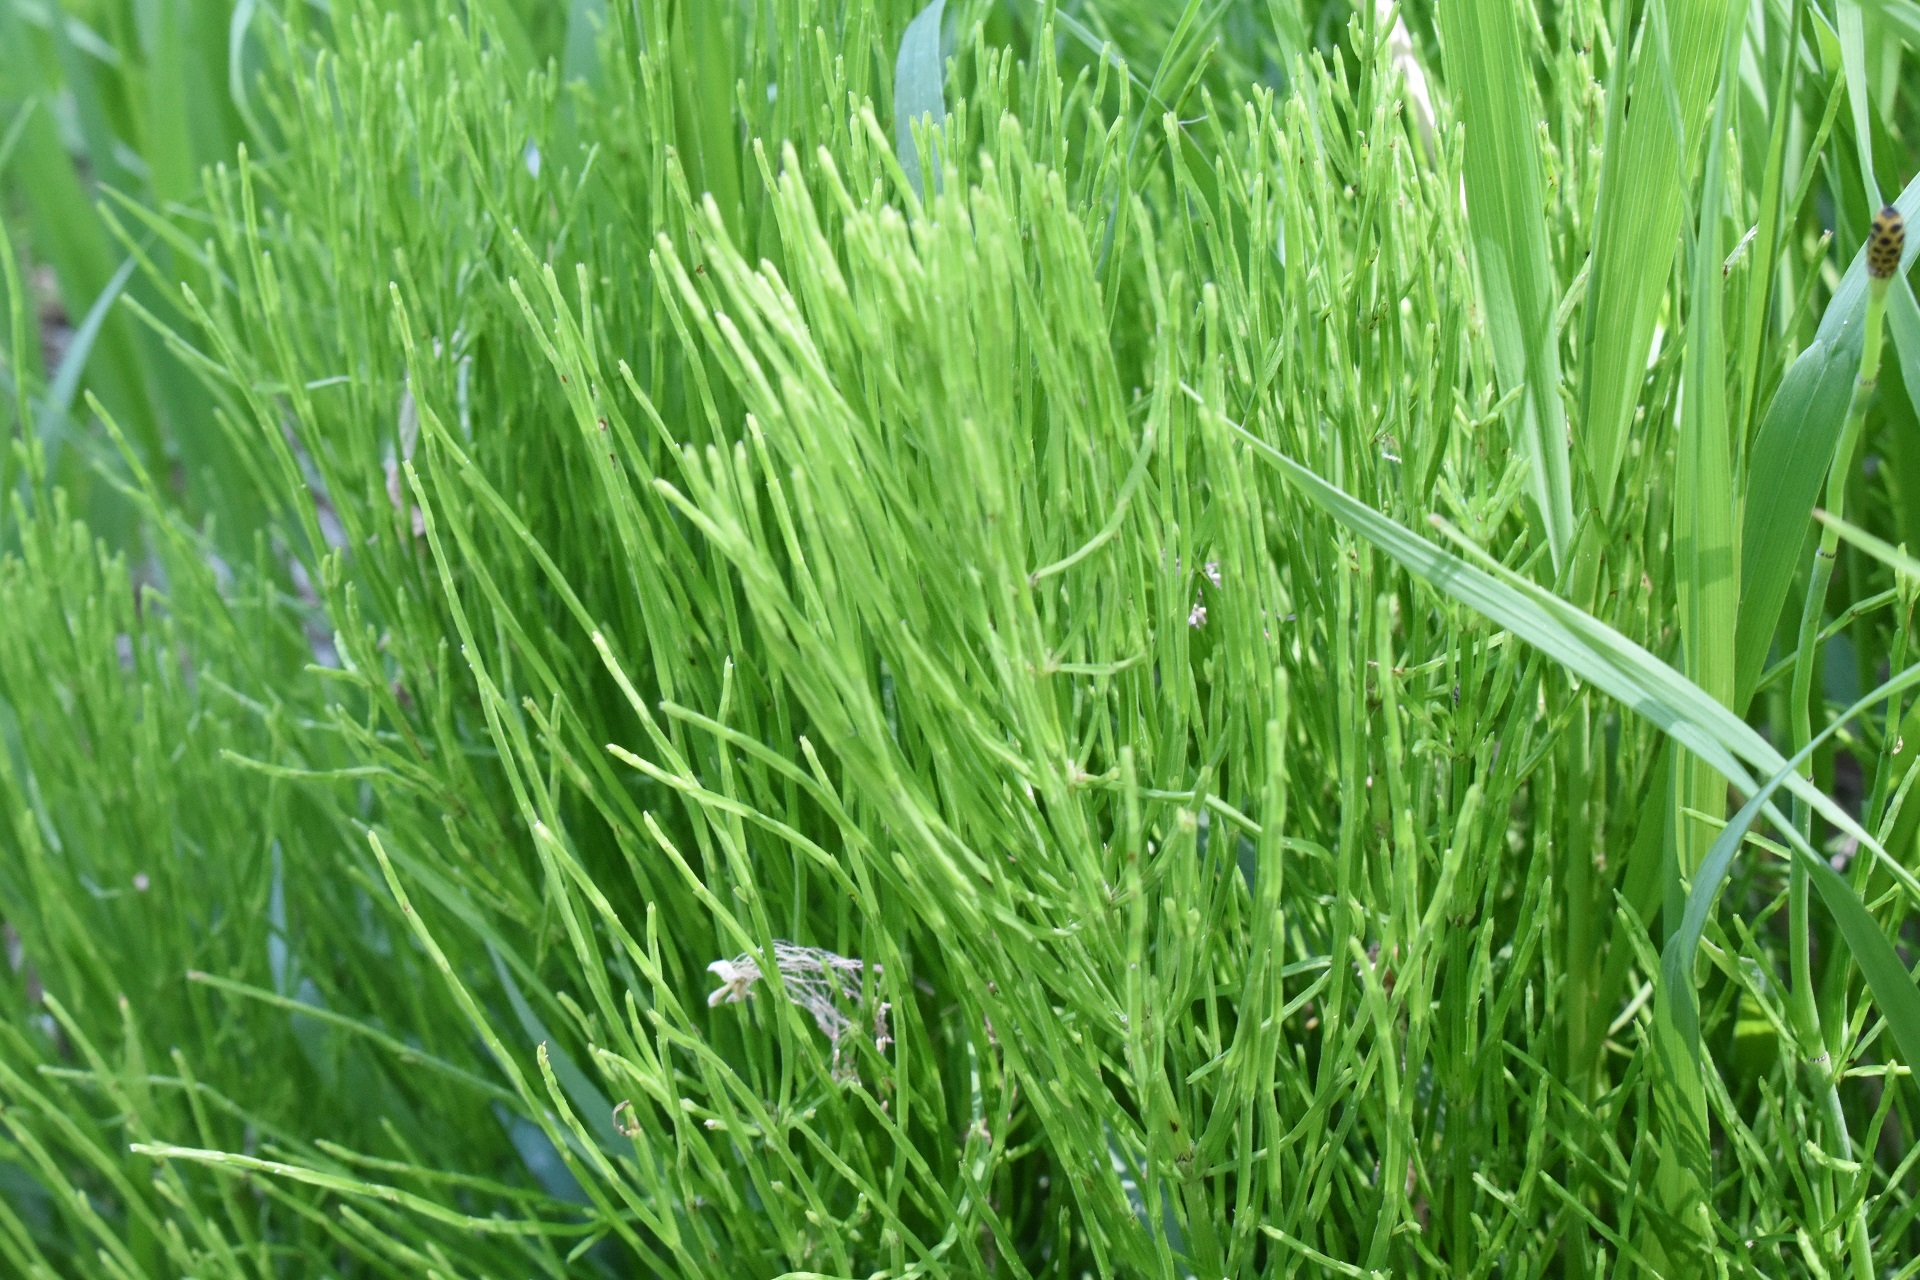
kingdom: Plantae
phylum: Tracheophyta
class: Polypodiopsida
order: Equisetales
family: Equisetaceae
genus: Equisetum
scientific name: Equisetum arvense
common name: Field horsetail
